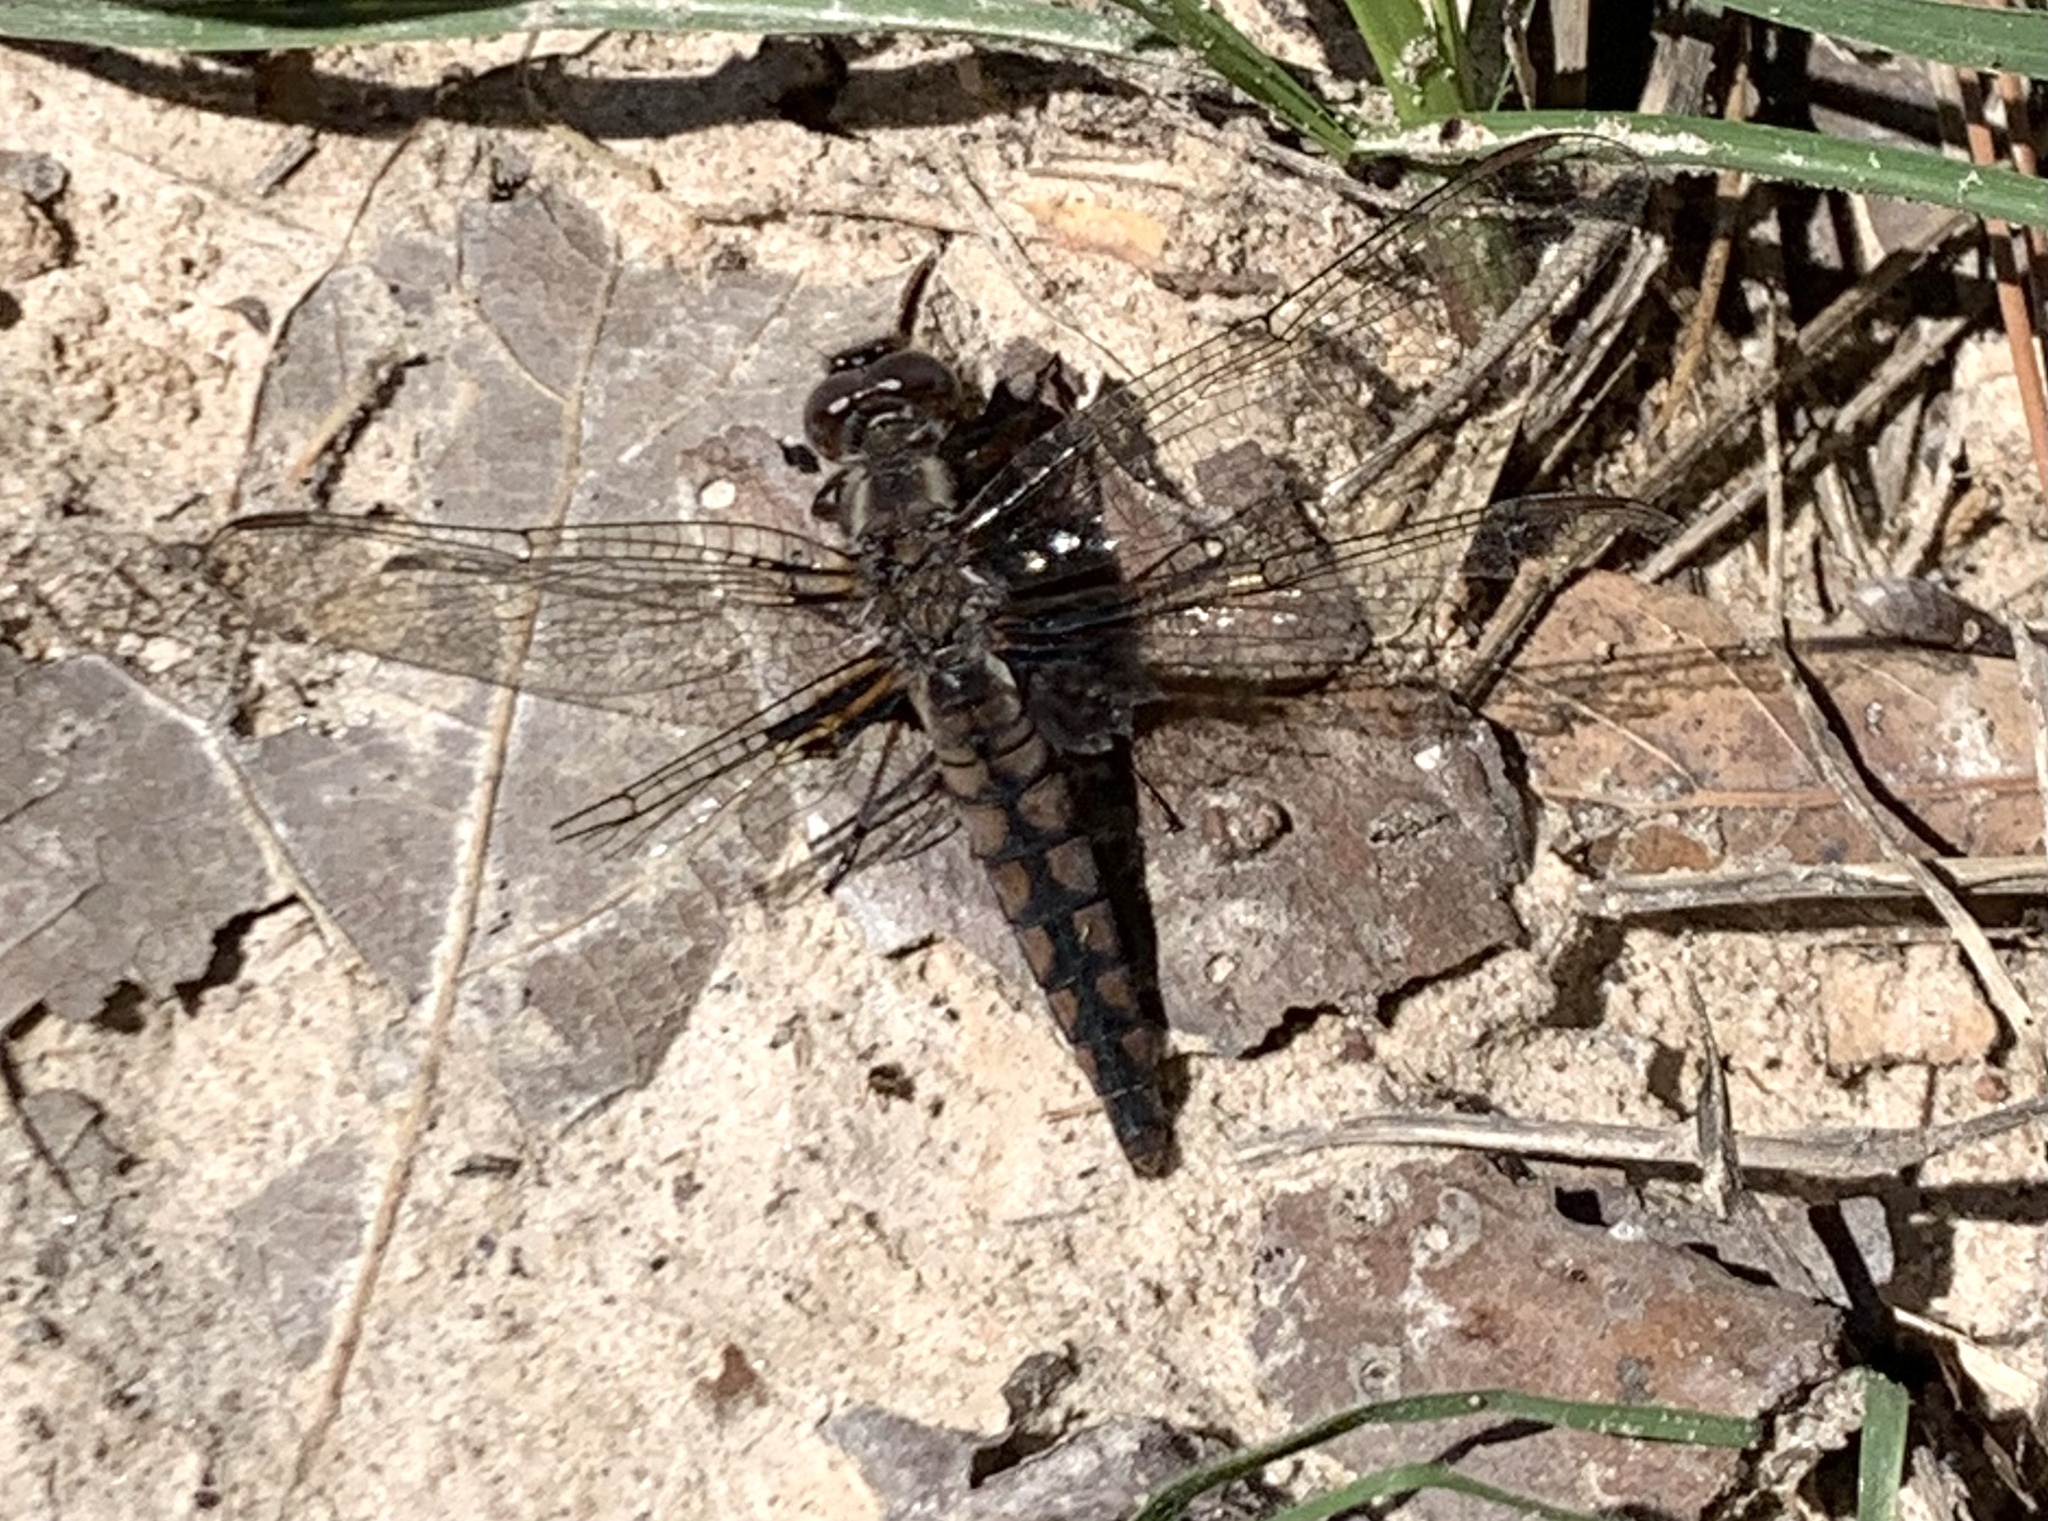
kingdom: Animalia
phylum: Arthropoda
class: Insecta
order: Odonata
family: Libellulidae
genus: Ladona
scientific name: Ladona deplanata
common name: Blue corporal
